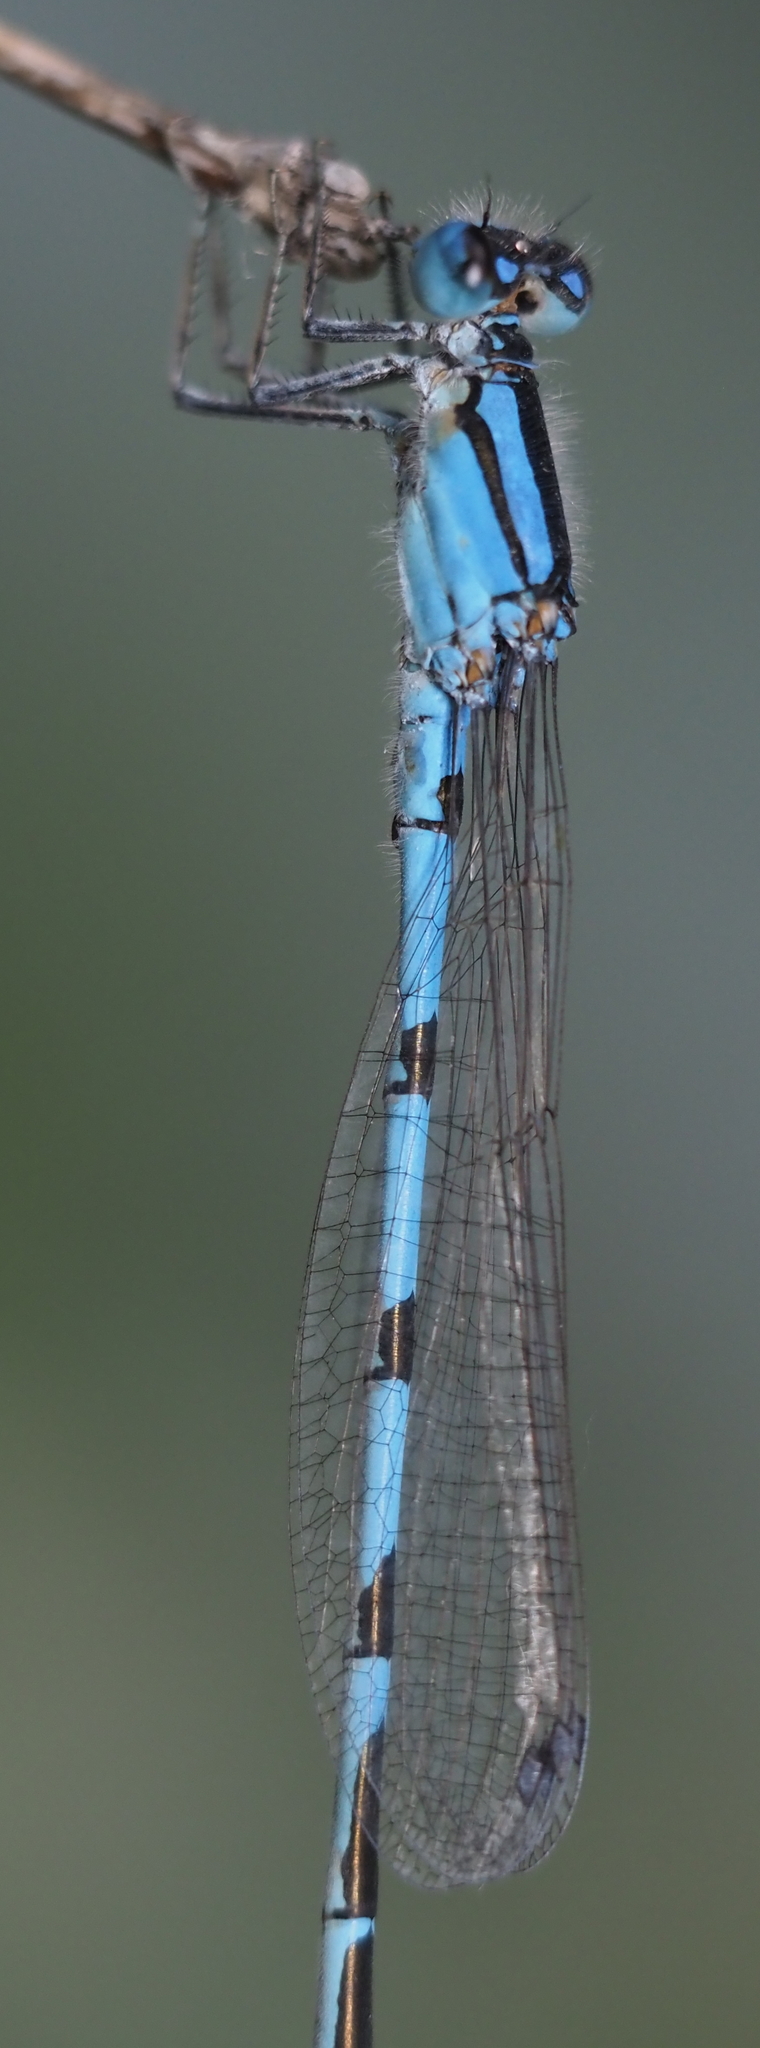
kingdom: Animalia
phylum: Arthropoda
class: Insecta
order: Odonata
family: Coenagrionidae
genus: Enallagma
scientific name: Enallagma civile
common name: Damselfly
